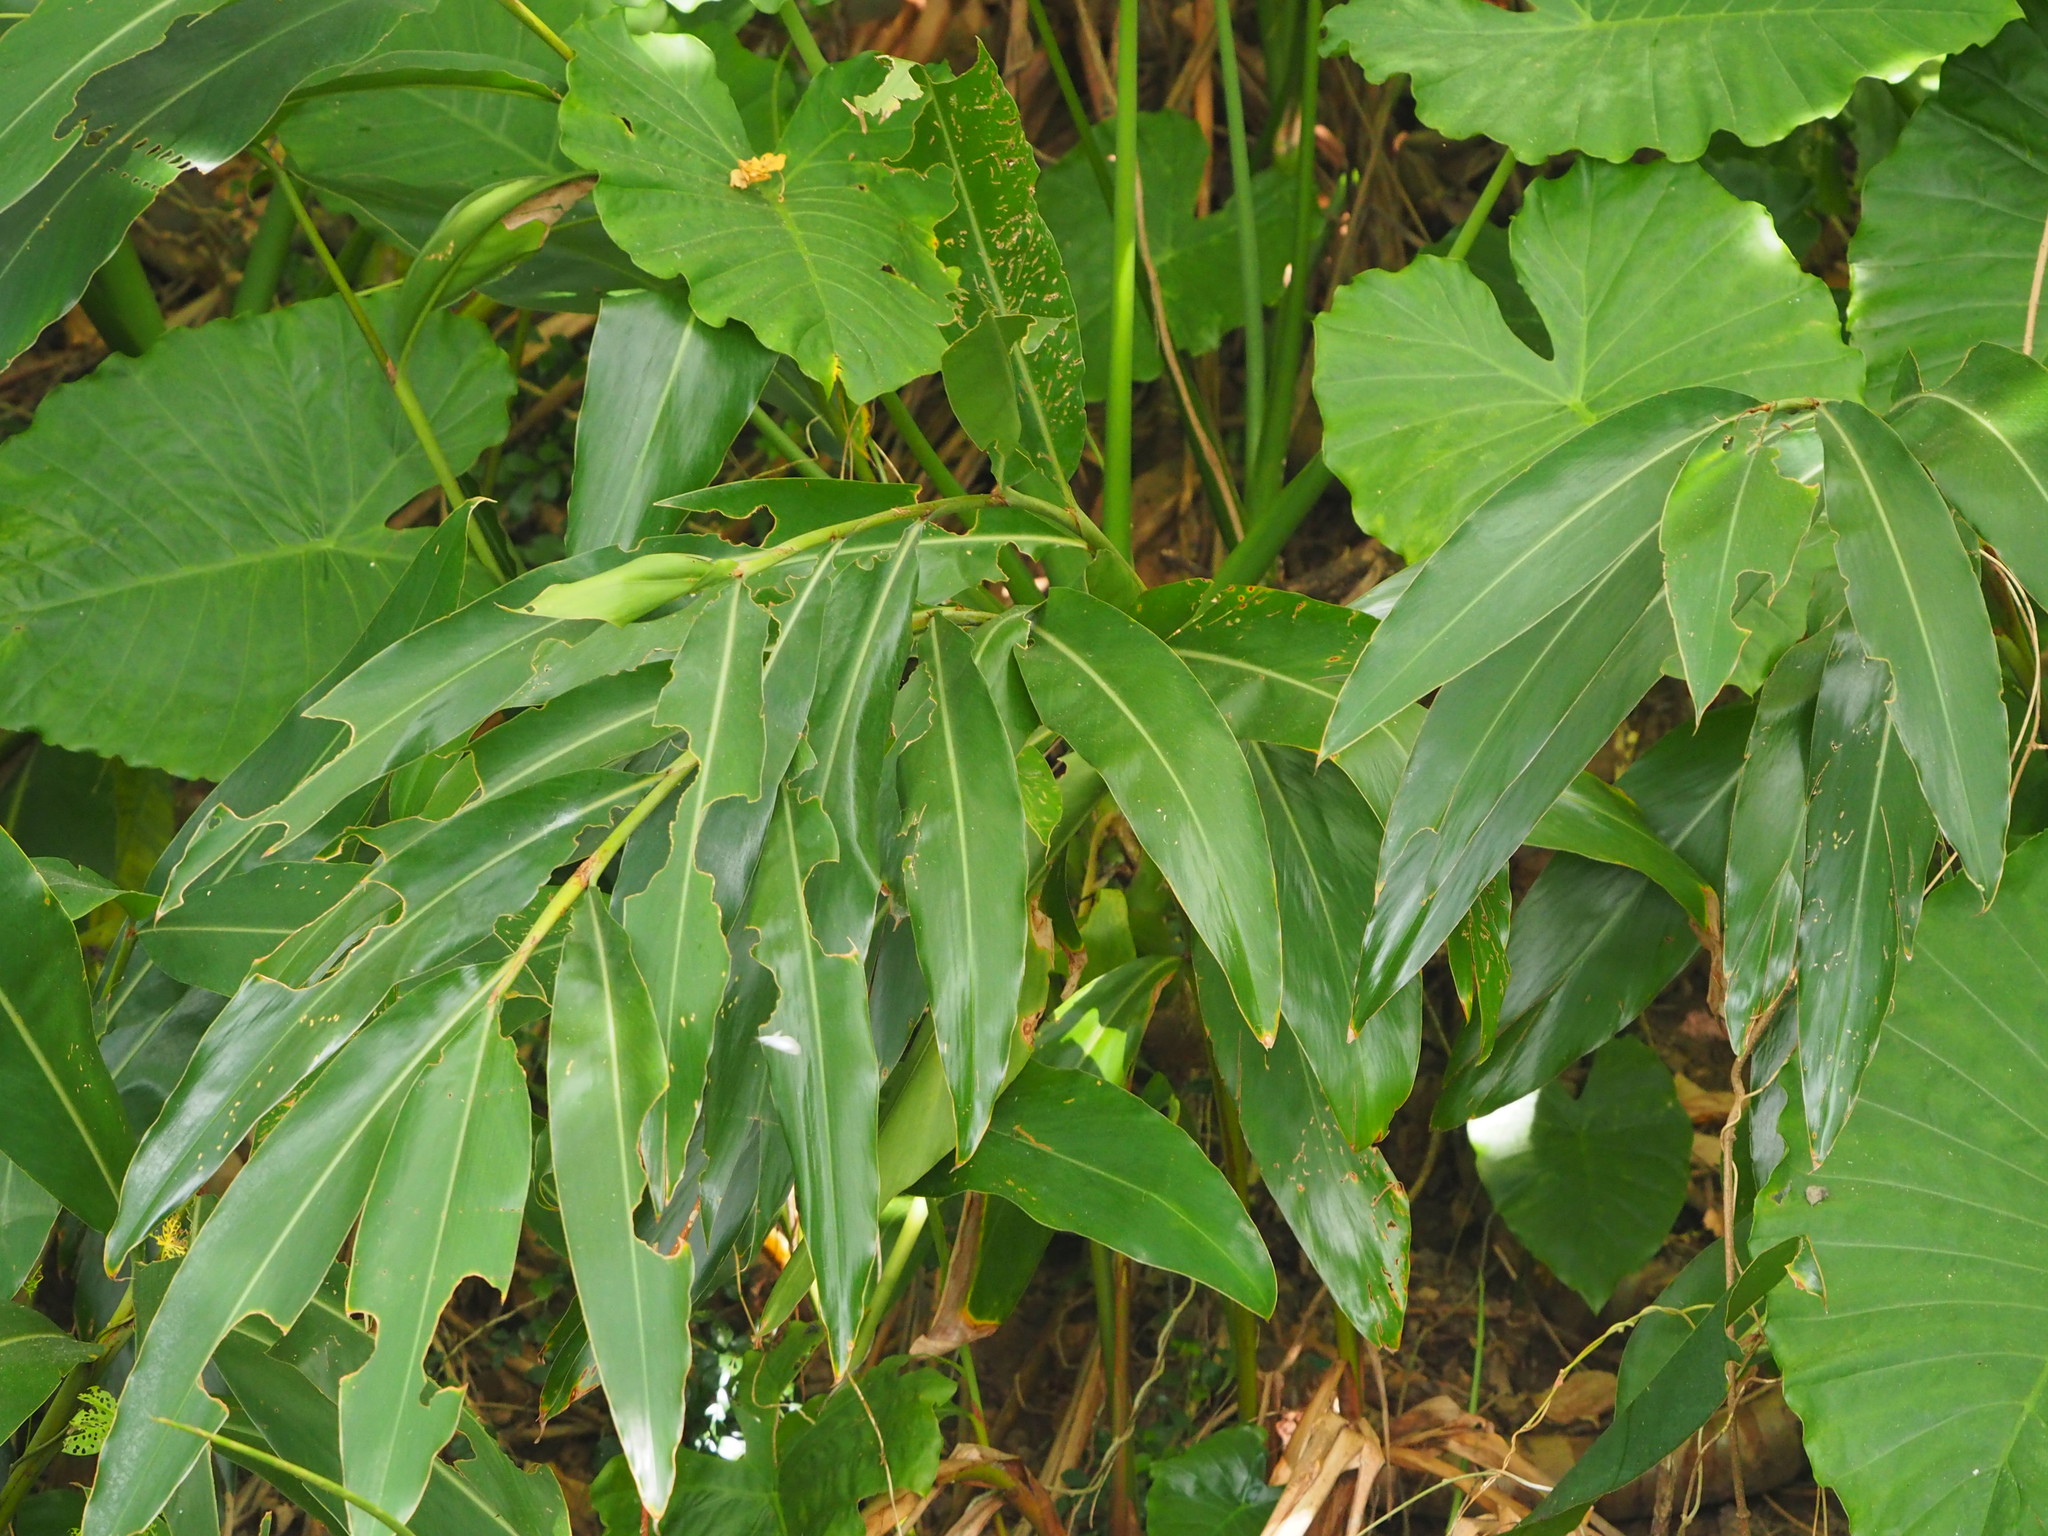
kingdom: Plantae
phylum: Tracheophyta
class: Liliopsida
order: Zingiberales
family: Zingiberaceae
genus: Alpinia
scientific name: Alpinia zerumbet
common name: Shellplant
